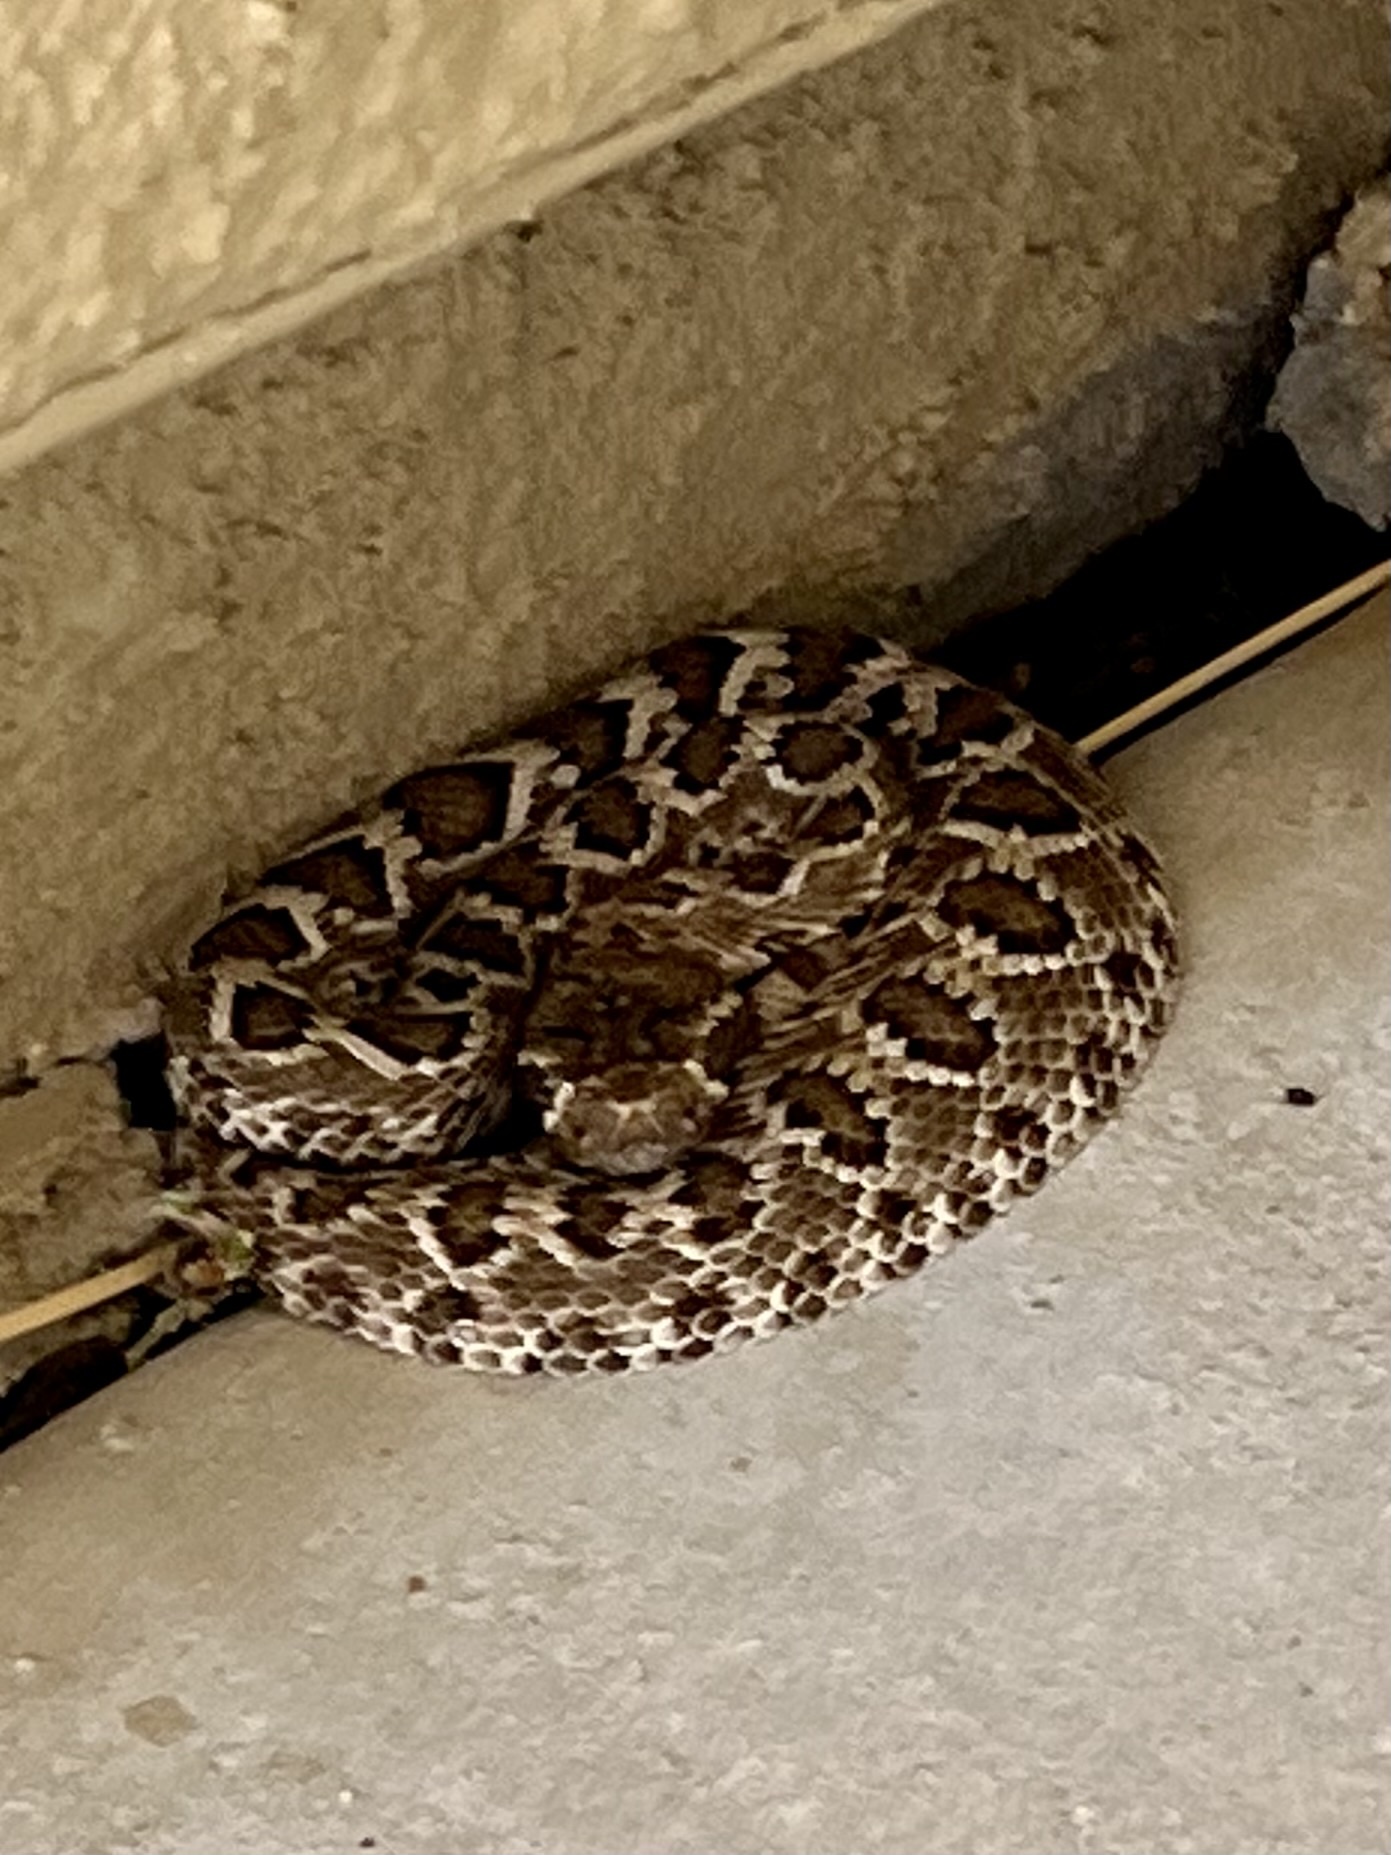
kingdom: Animalia
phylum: Chordata
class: Squamata
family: Viperidae
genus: Crotalus
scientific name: Crotalus scutulatus
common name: Scutulatus
